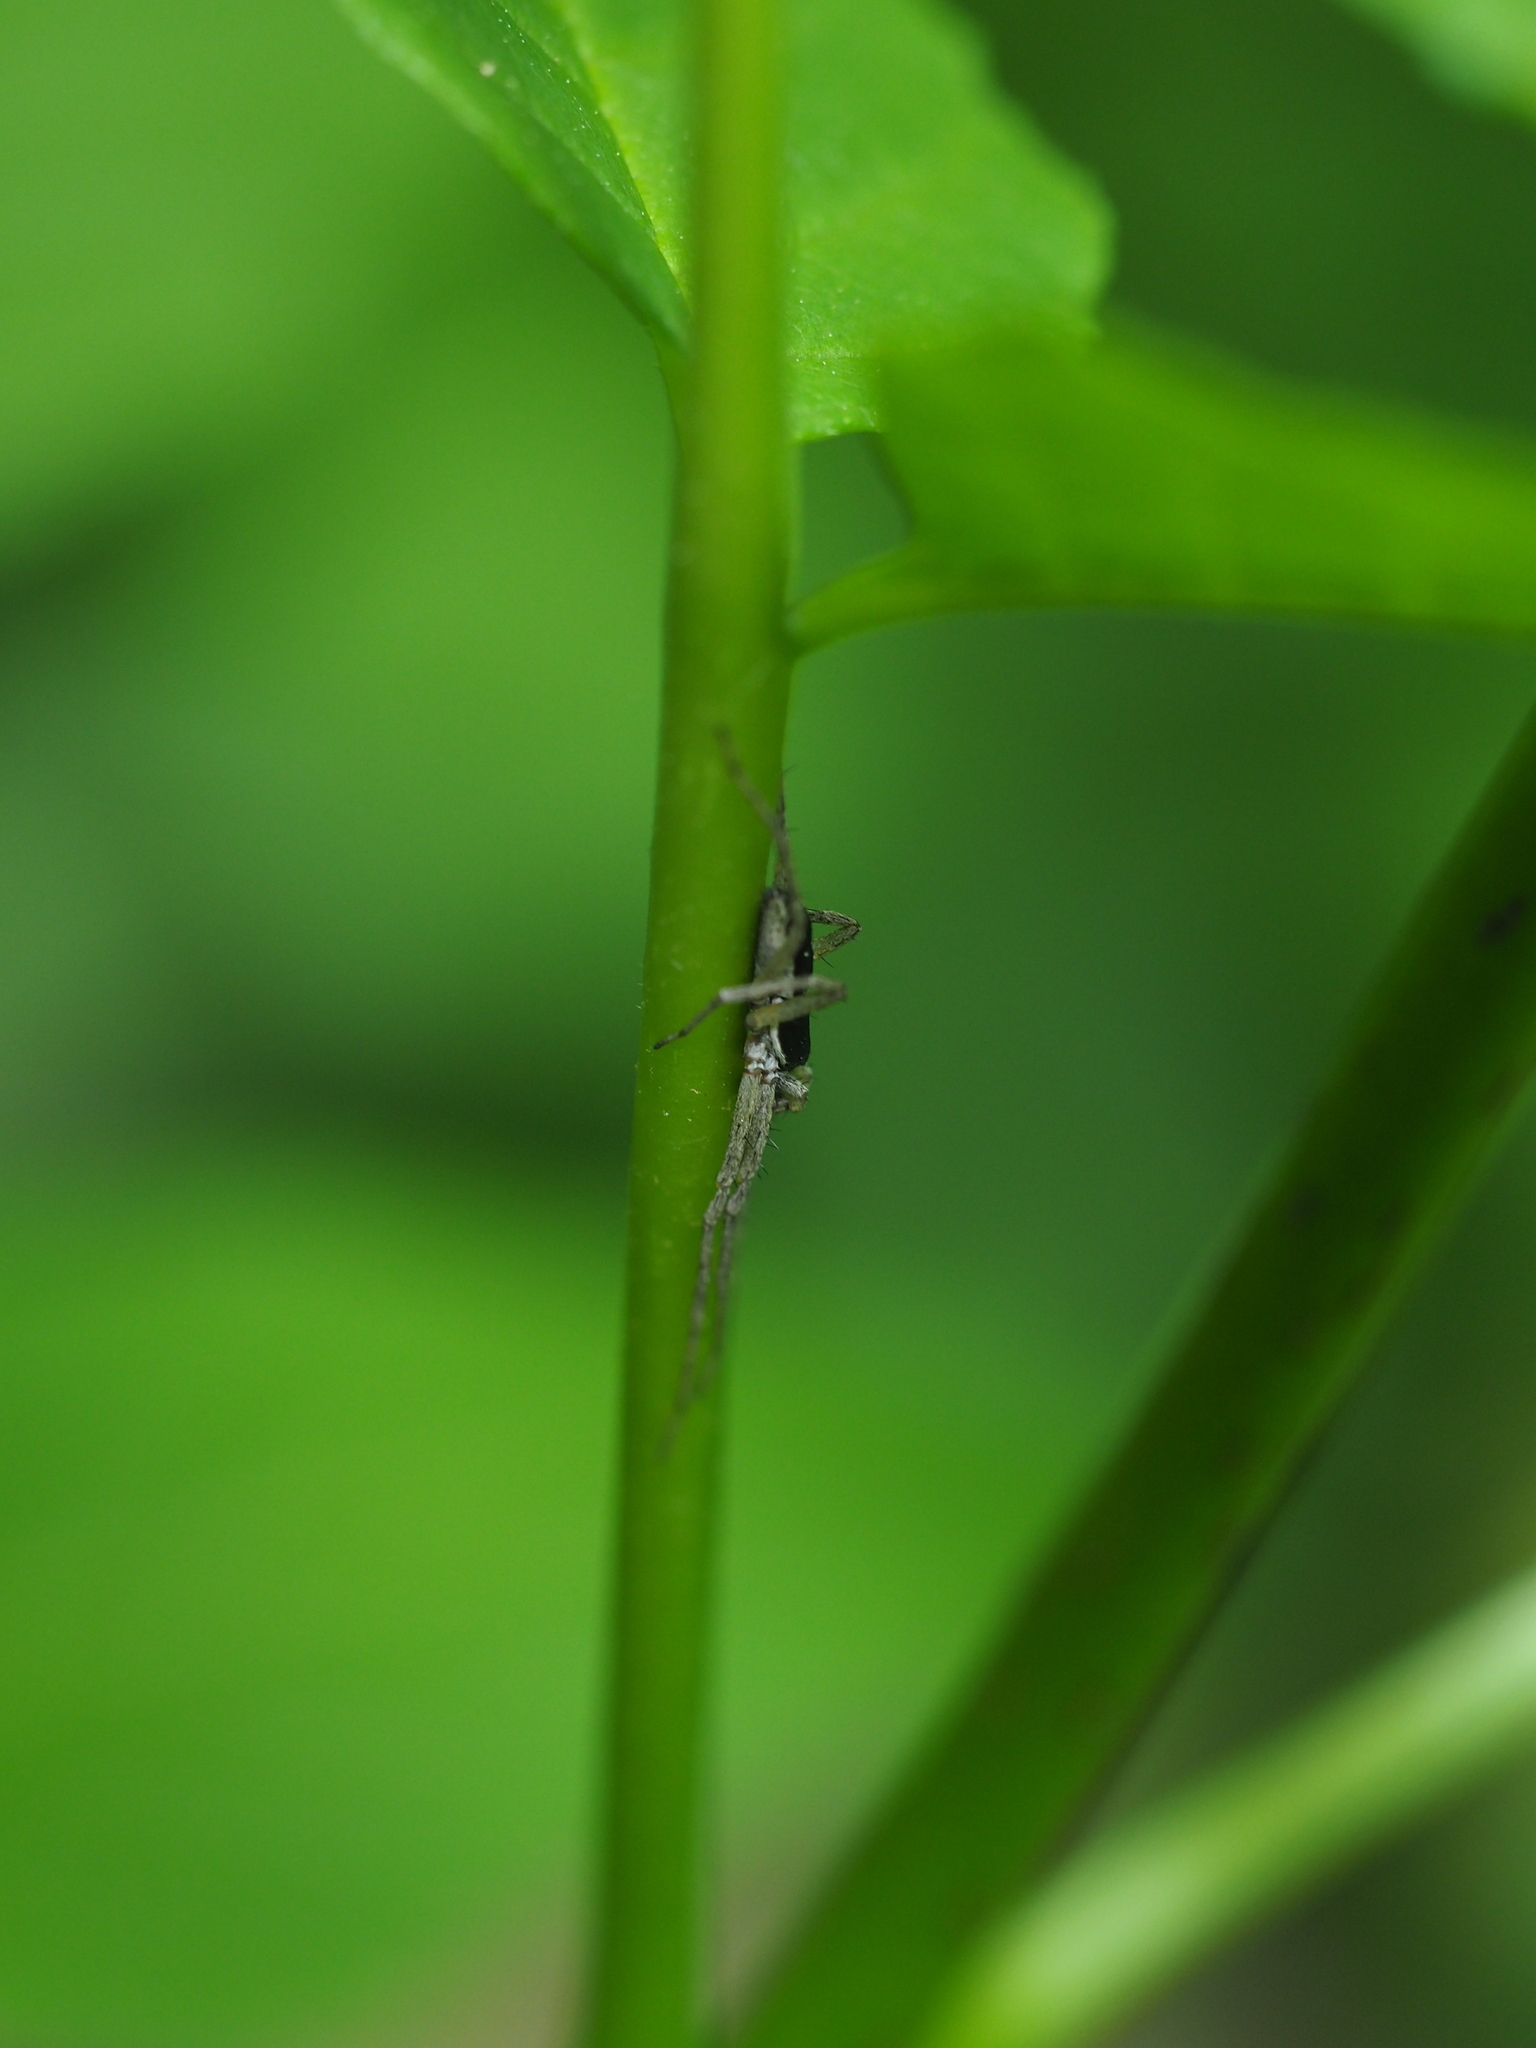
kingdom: Animalia
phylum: Arthropoda
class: Arachnida
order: Araneae
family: Philodromidae
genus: Philodromus
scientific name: Philodromus dispar
